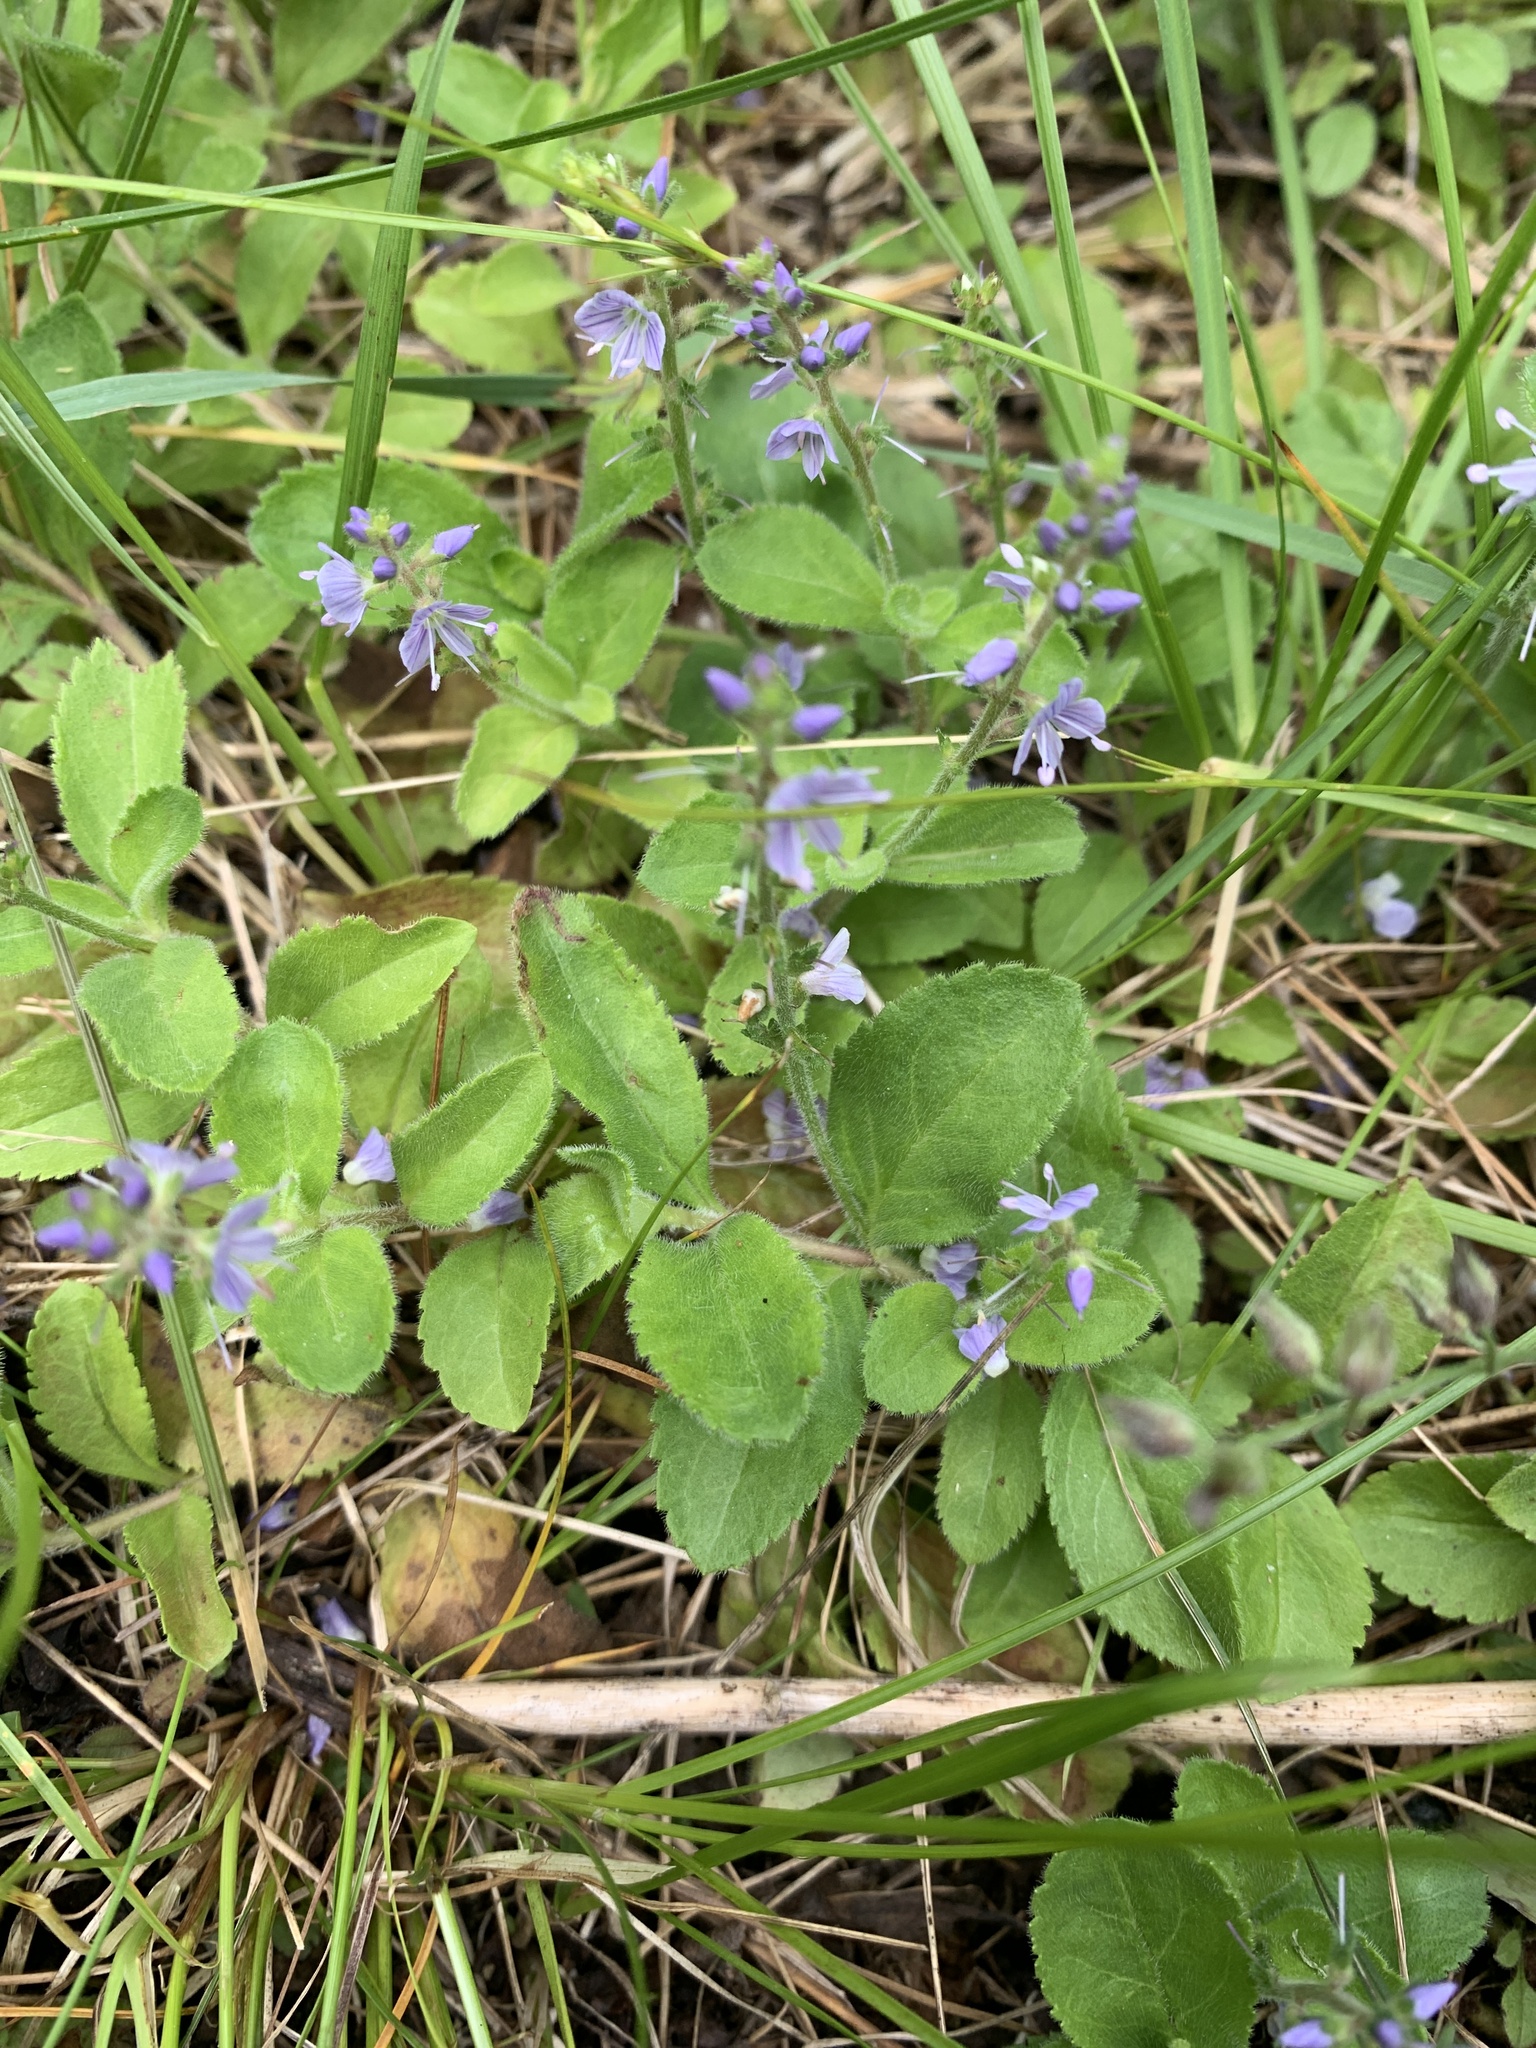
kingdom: Plantae
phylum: Tracheophyta
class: Magnoliopsida
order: Lamiales
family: Plantaginaceae
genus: Veronica
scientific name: Veronica officinalis
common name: Common speedwell
